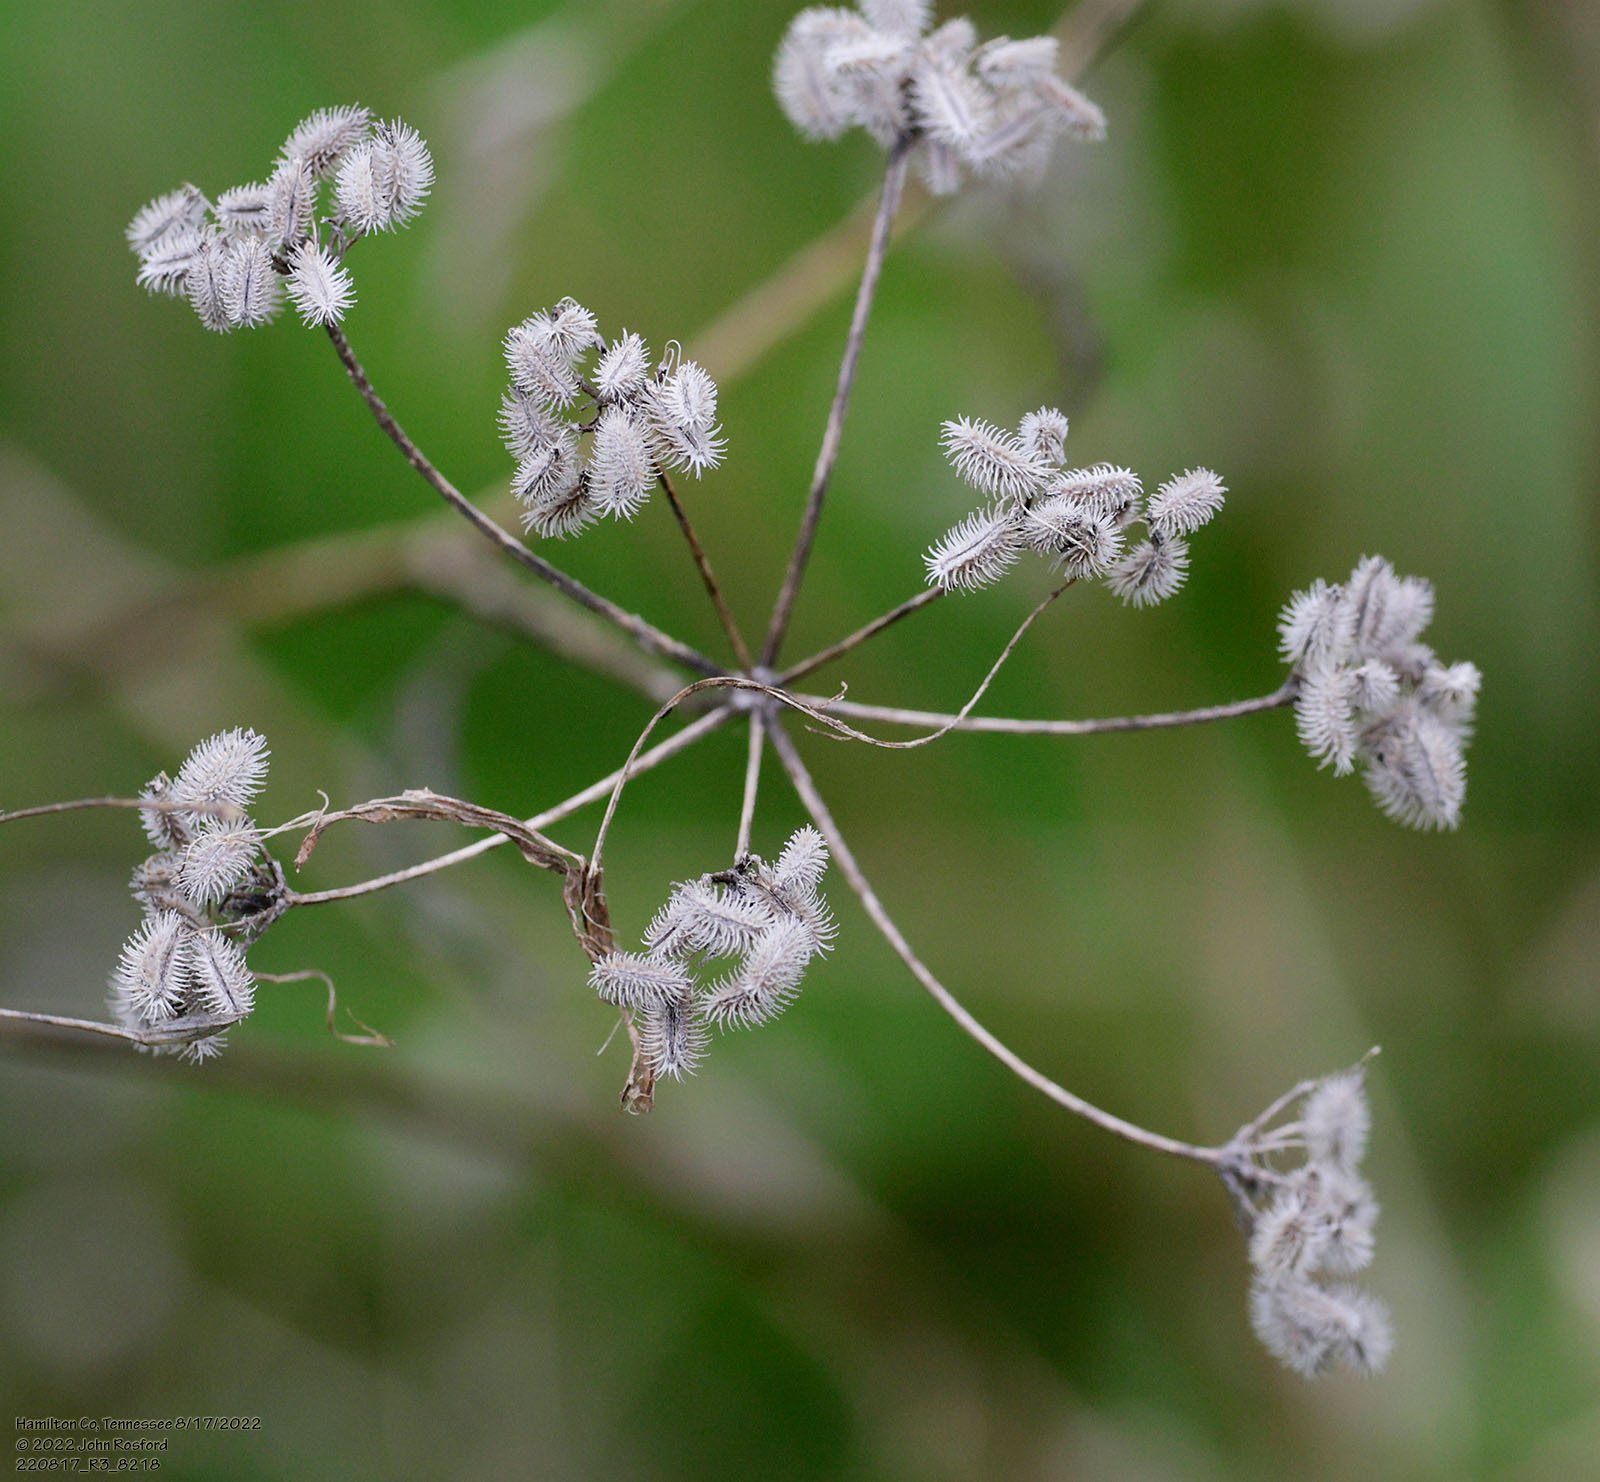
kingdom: Plantae
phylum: Tracheophyta
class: Magnoliopsida
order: Apiales
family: Apiaceae
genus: Torilis
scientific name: Torilis arvensis
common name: Spreading hedge-parsley
